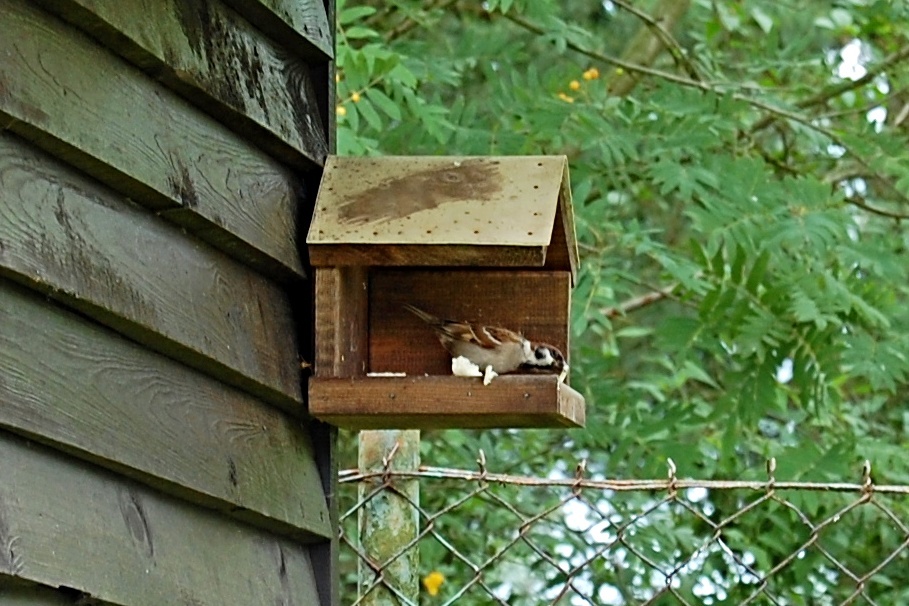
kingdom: Animalia
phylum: Chordata
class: Aves
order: Passeriformes
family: Passeridae
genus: Passer
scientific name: Passer montanus
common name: Eurasian tree sparrow
